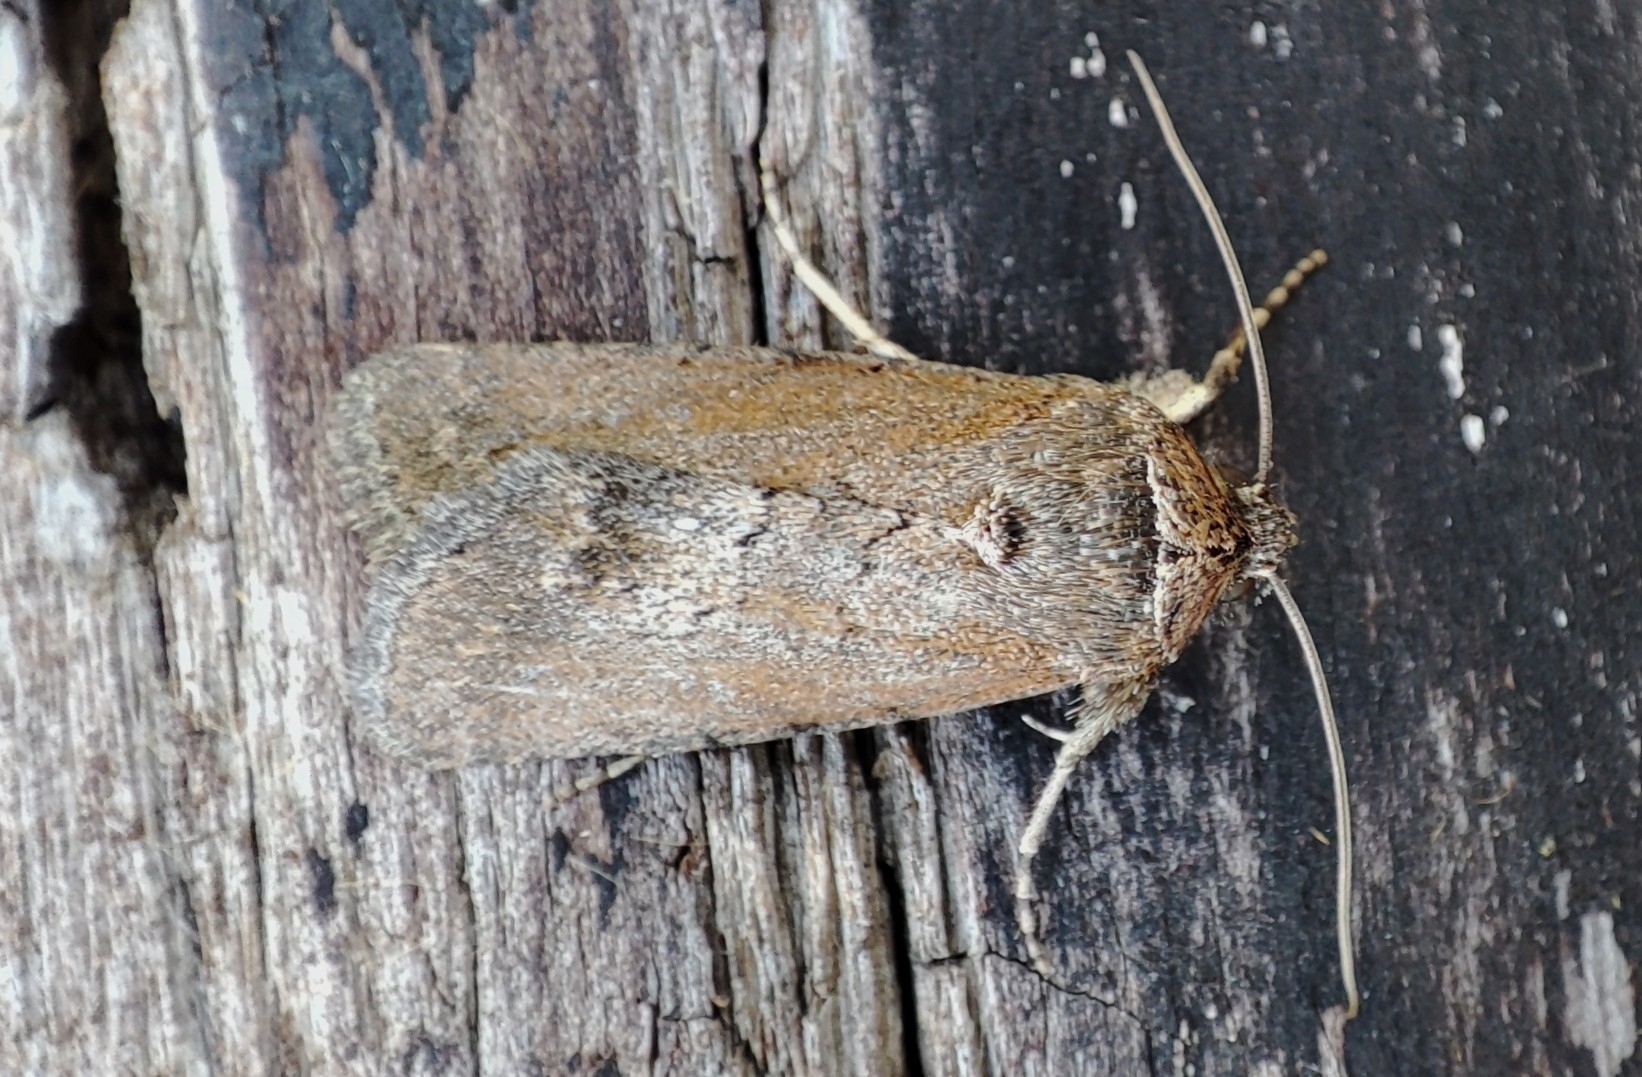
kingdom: Animalia
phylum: Arthropoda
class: Insecta
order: Lepidoptera
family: Noctuidae
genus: Sympistis
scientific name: Sympistis heliophila
